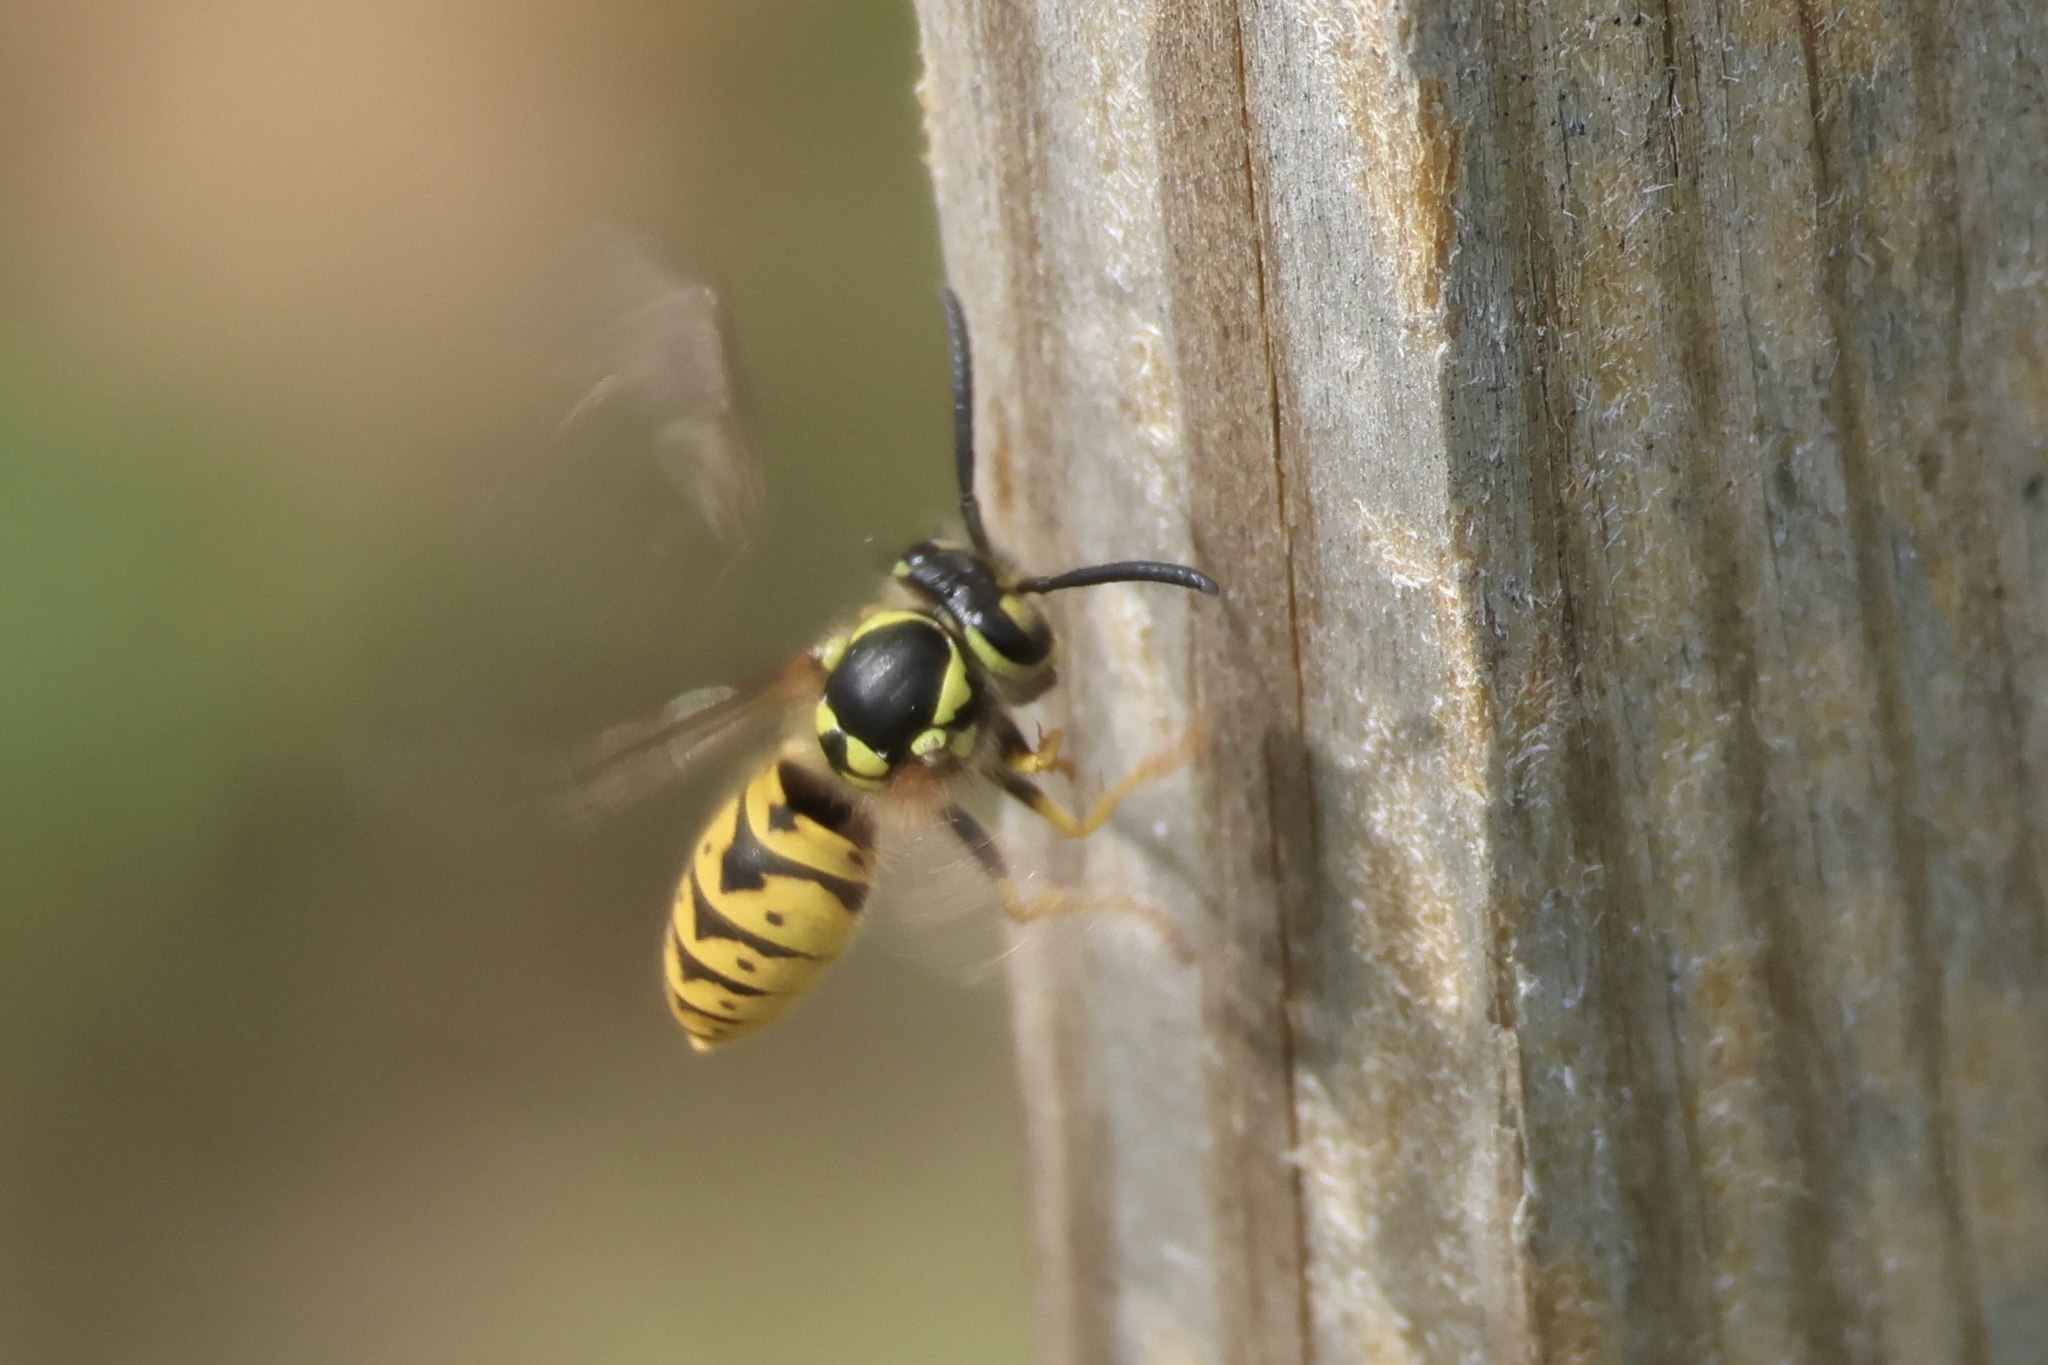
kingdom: Animalia
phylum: Arthropoda
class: Insecta
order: Hymenoptera
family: Vespidae
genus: Vespula
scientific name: Vespula germanica
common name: German wasp
